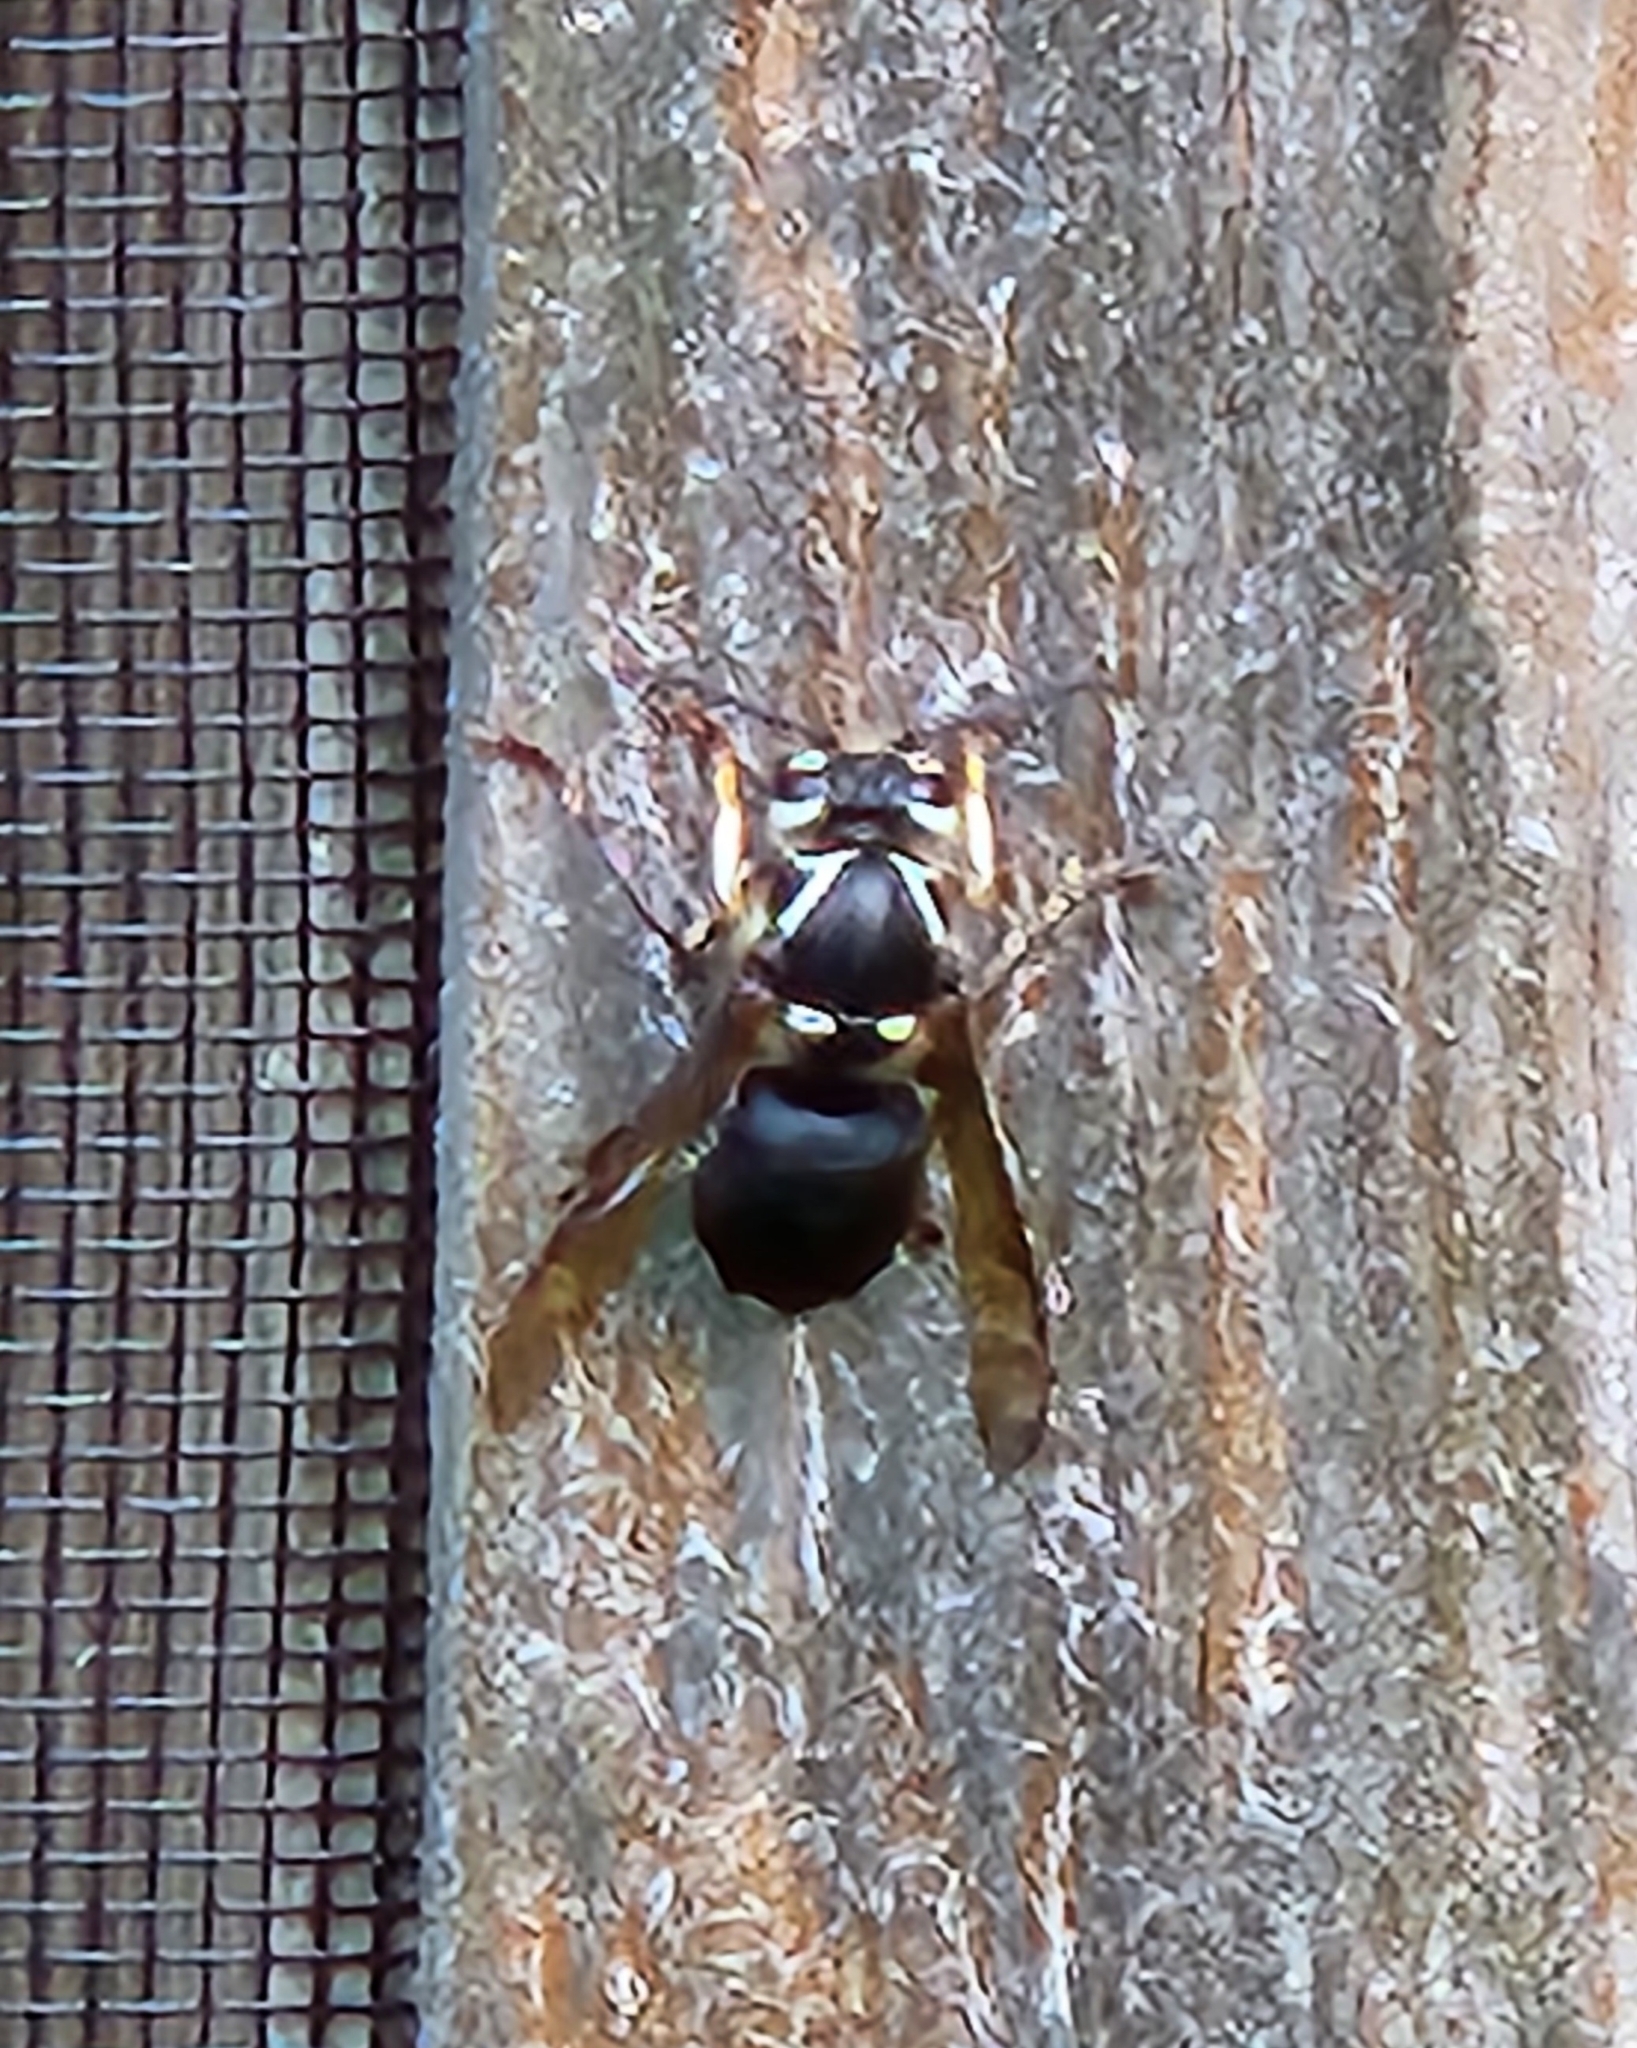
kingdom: Animalia
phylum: Arthropoda
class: Insecta
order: Hymenoptera
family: Vespidae
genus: Dolichovespula
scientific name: Dolichovespula maculata
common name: Bald-faced hornet
